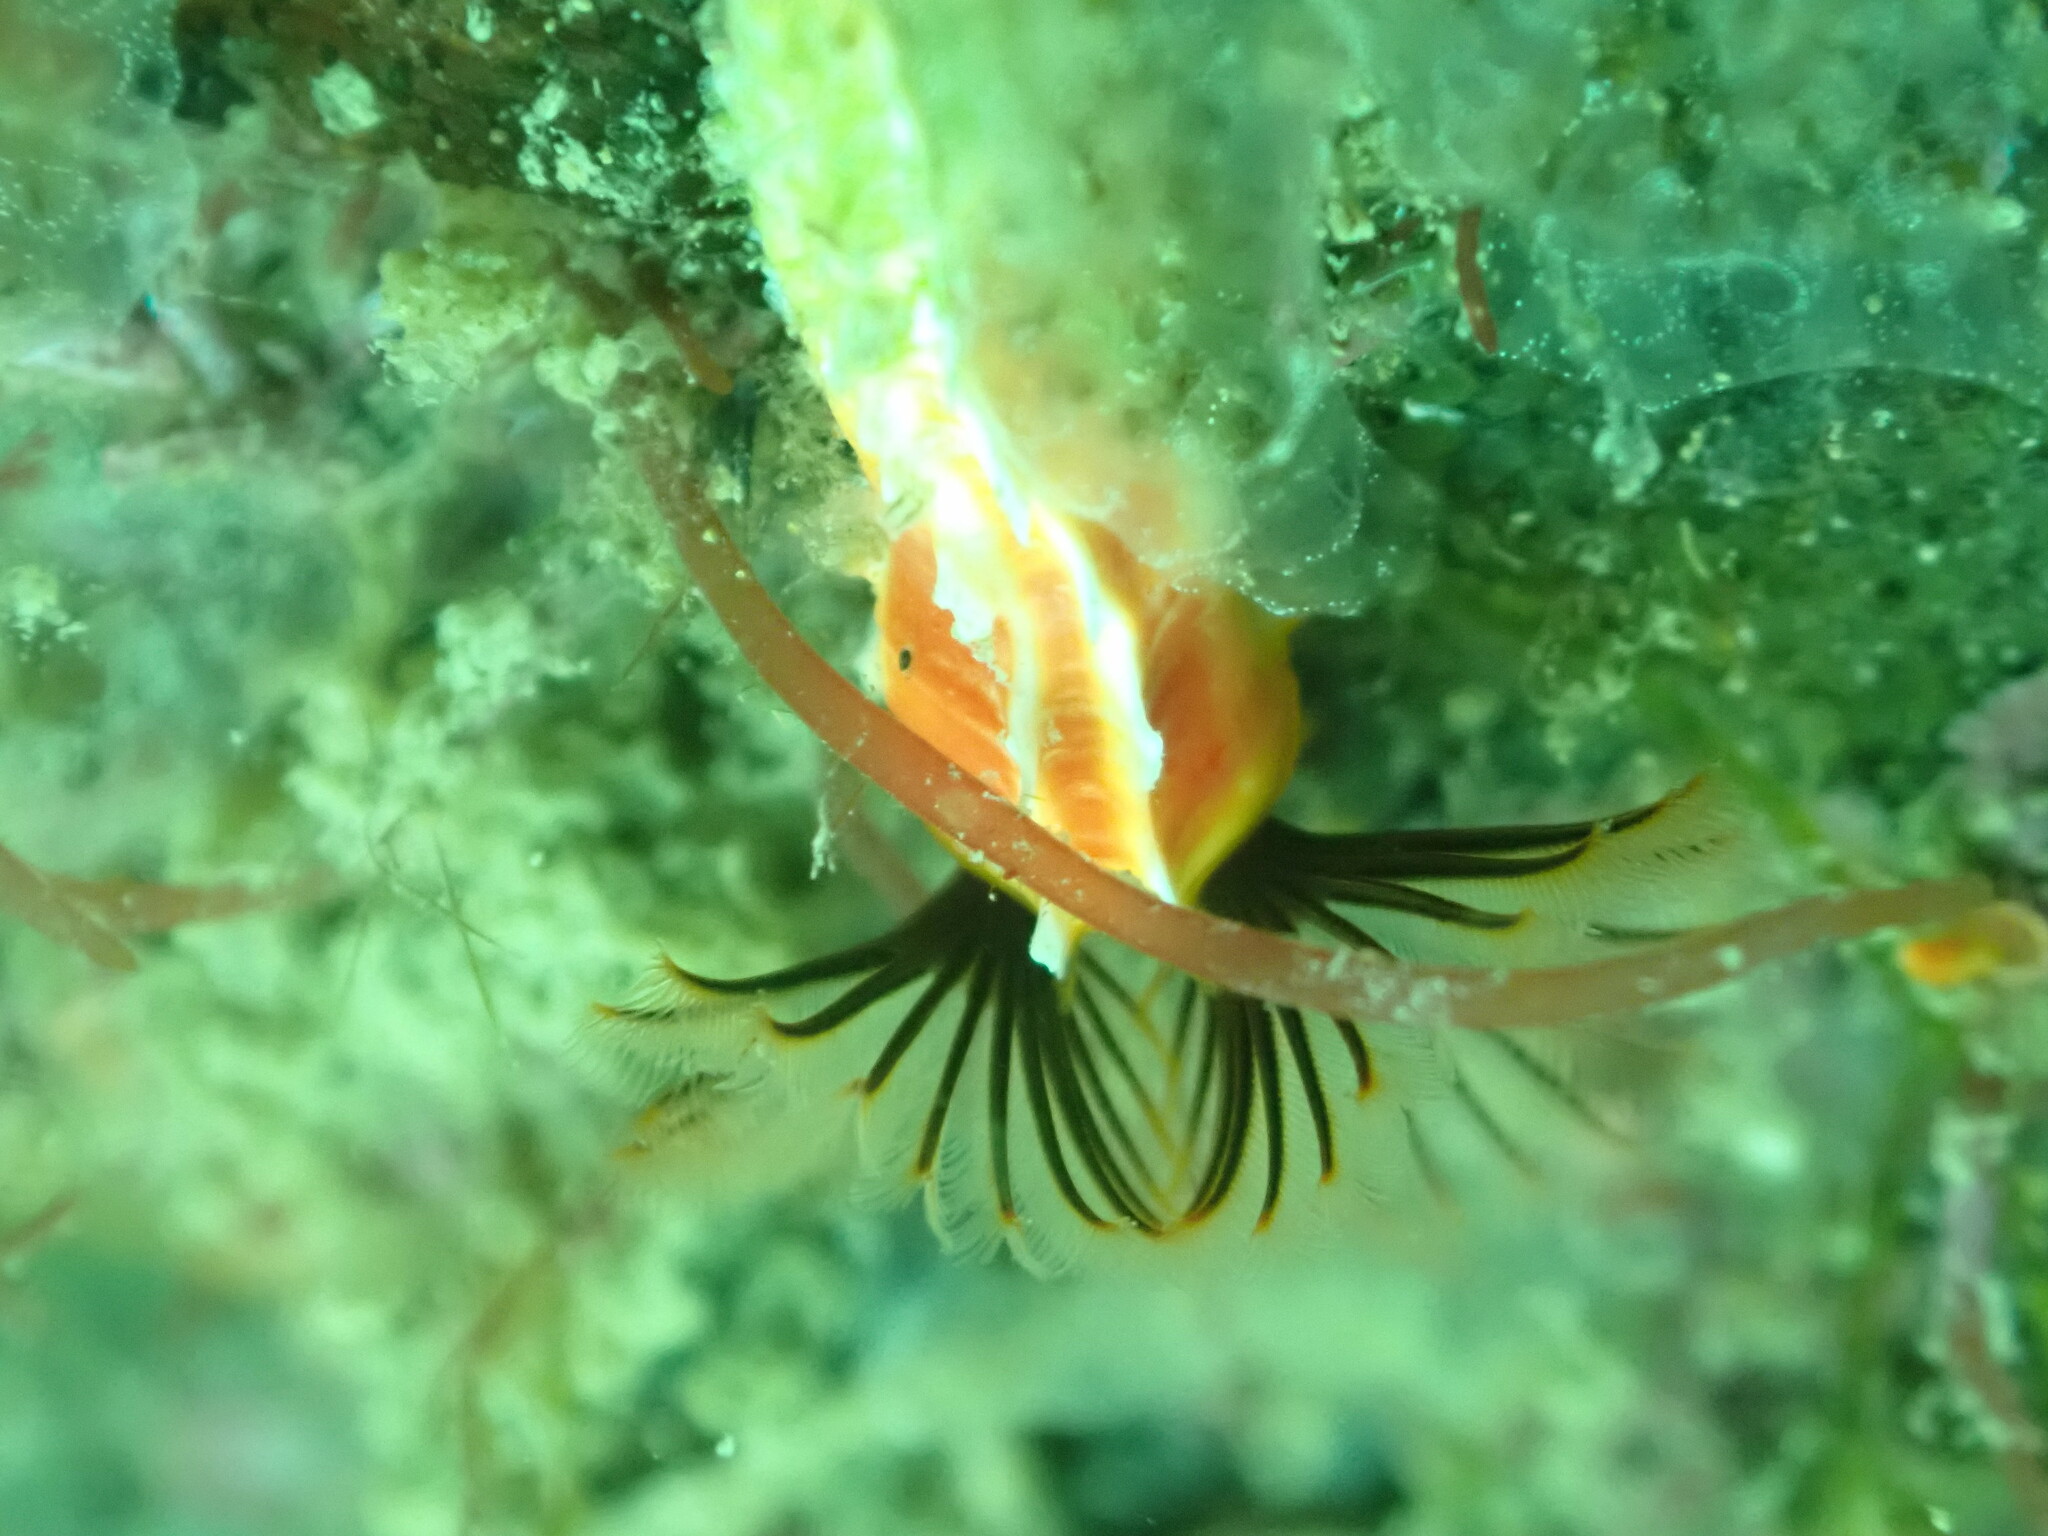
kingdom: Animalia
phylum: Annelida
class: Polychaeta
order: Sabellida
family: Serpulidae
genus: Galeolaria
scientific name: Galeolaria hystrix
